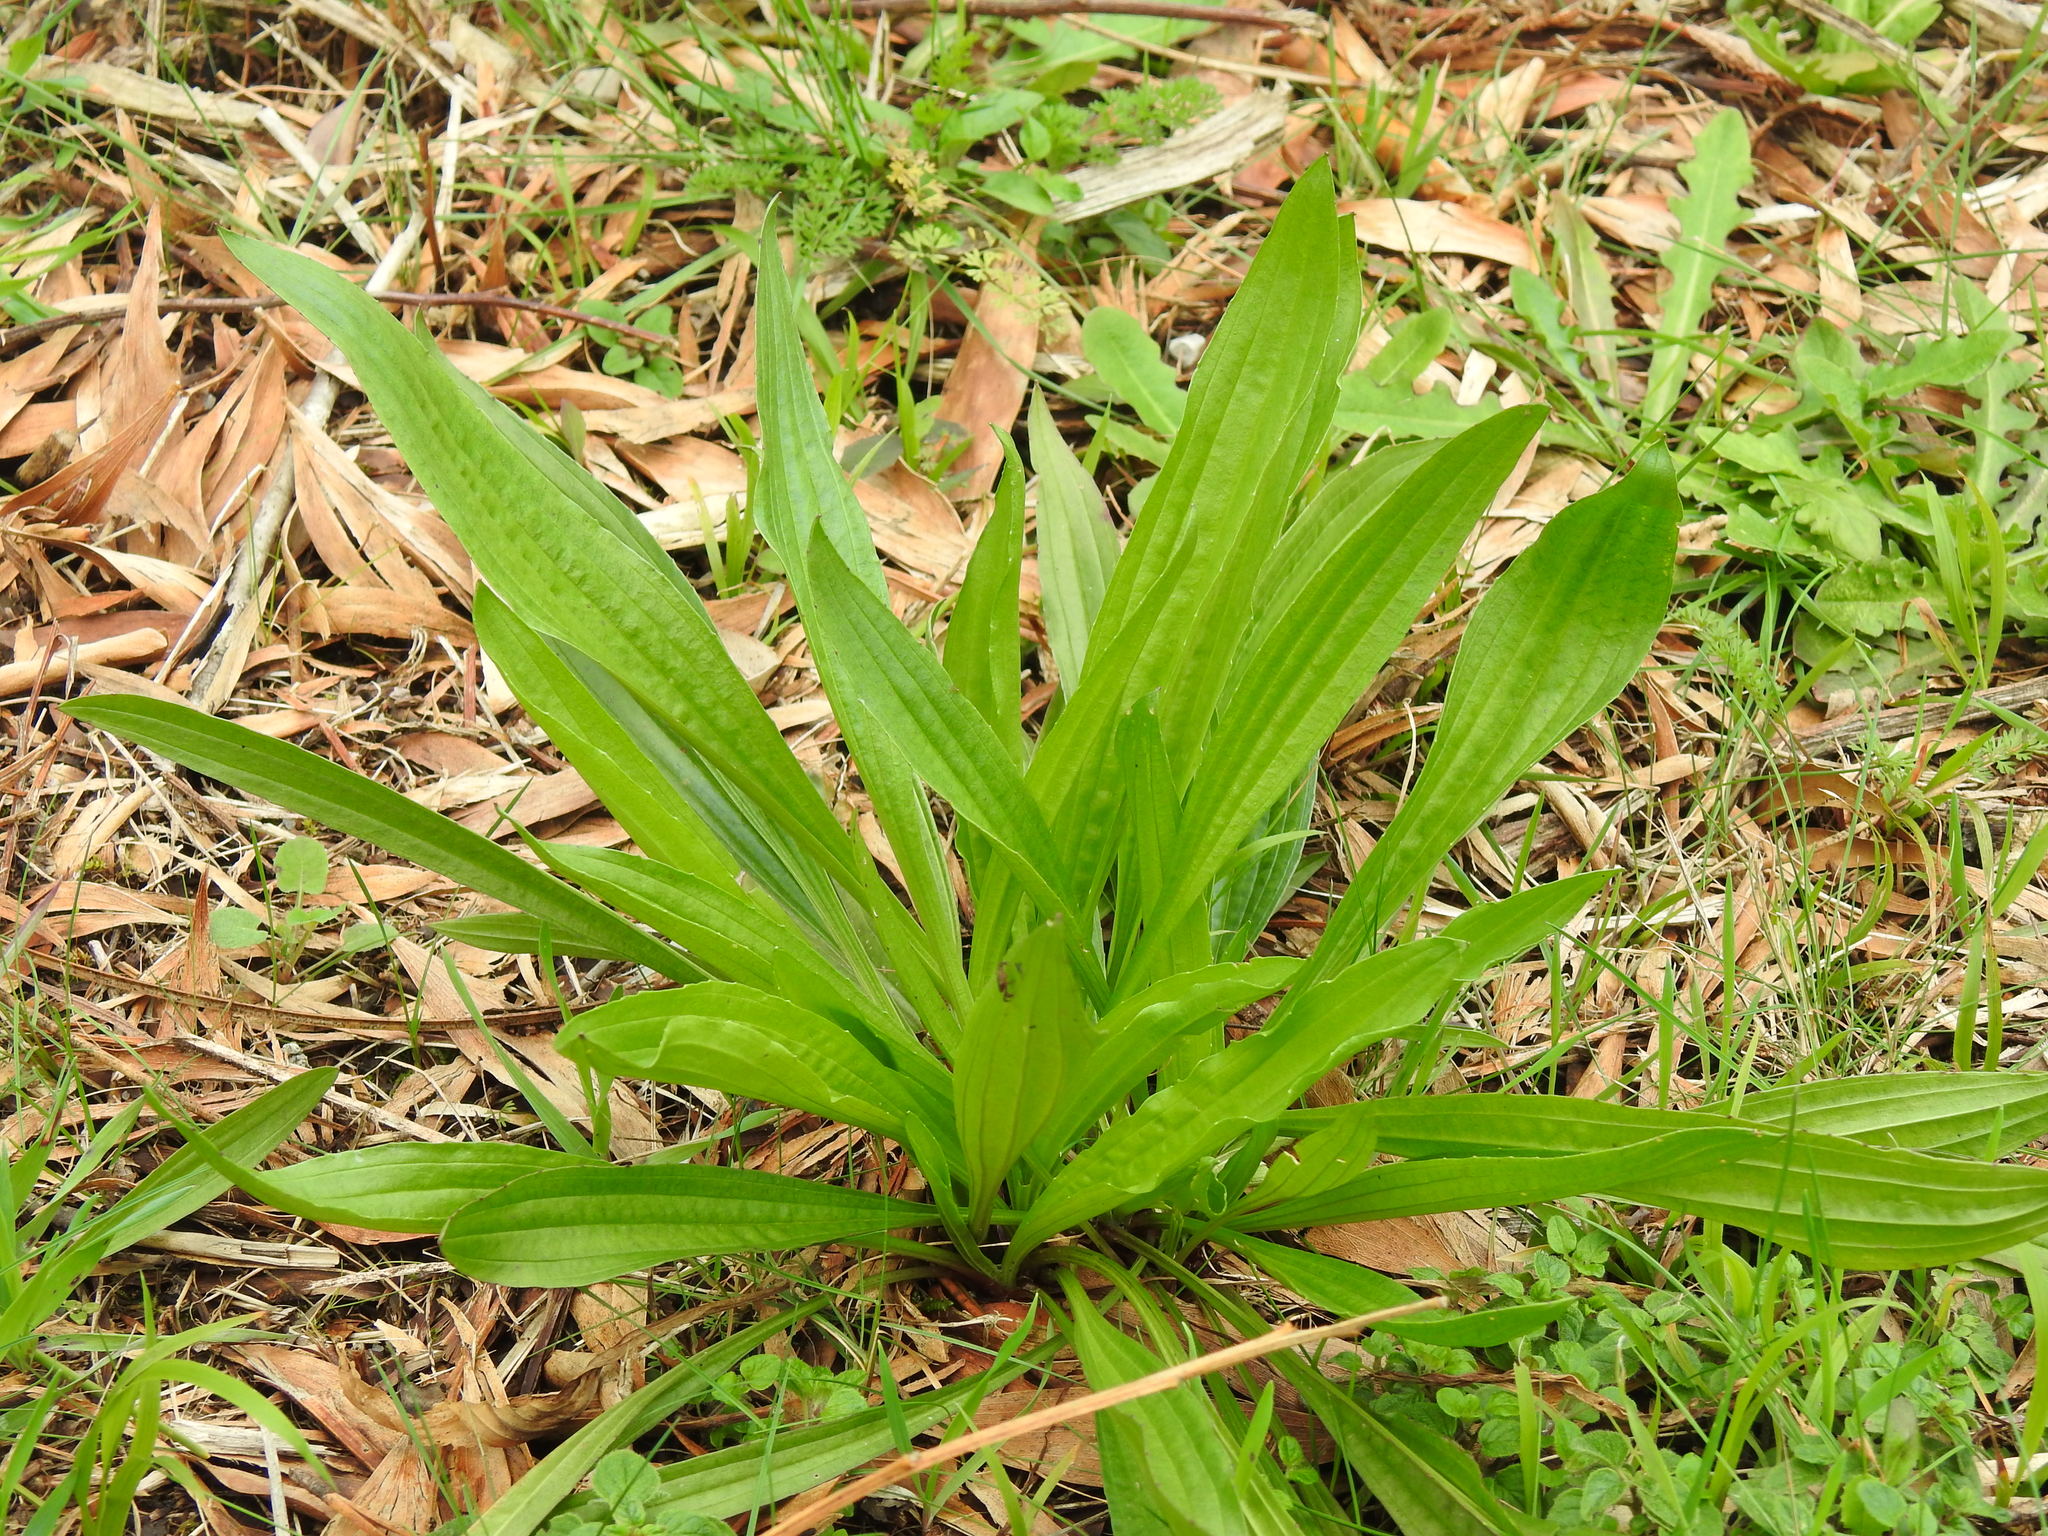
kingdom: Plantae
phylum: Tracheophyta
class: Magnoliopsida
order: Lamiales
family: Plantaginaceae
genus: Plantago
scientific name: Plantago lanceolata
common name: Ribwort plantain
